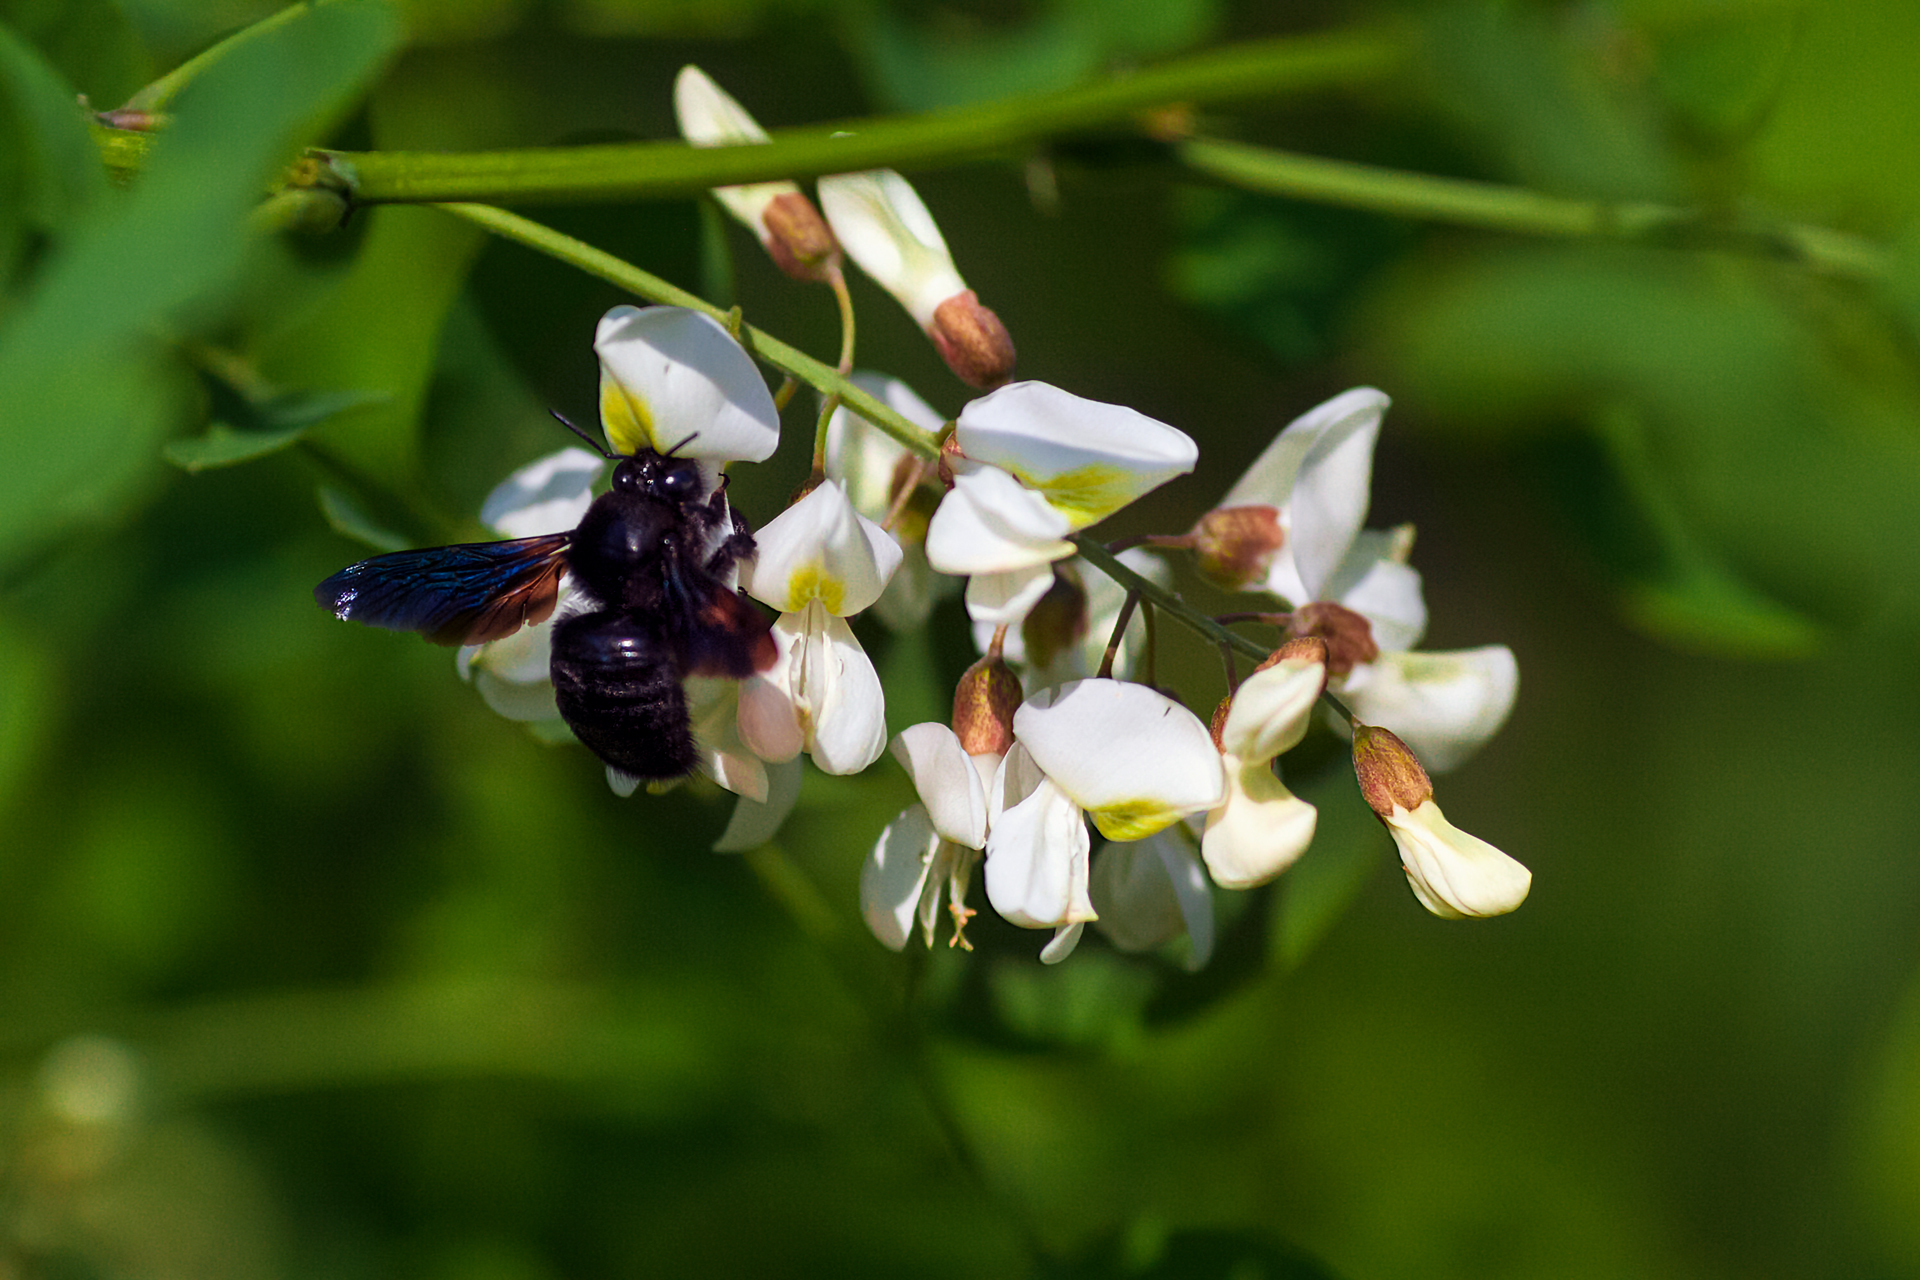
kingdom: Animalia
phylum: Arthropoda
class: Insecta
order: Hymenoptera
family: Apidae
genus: Xylocopa
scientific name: Xylocopa valga
